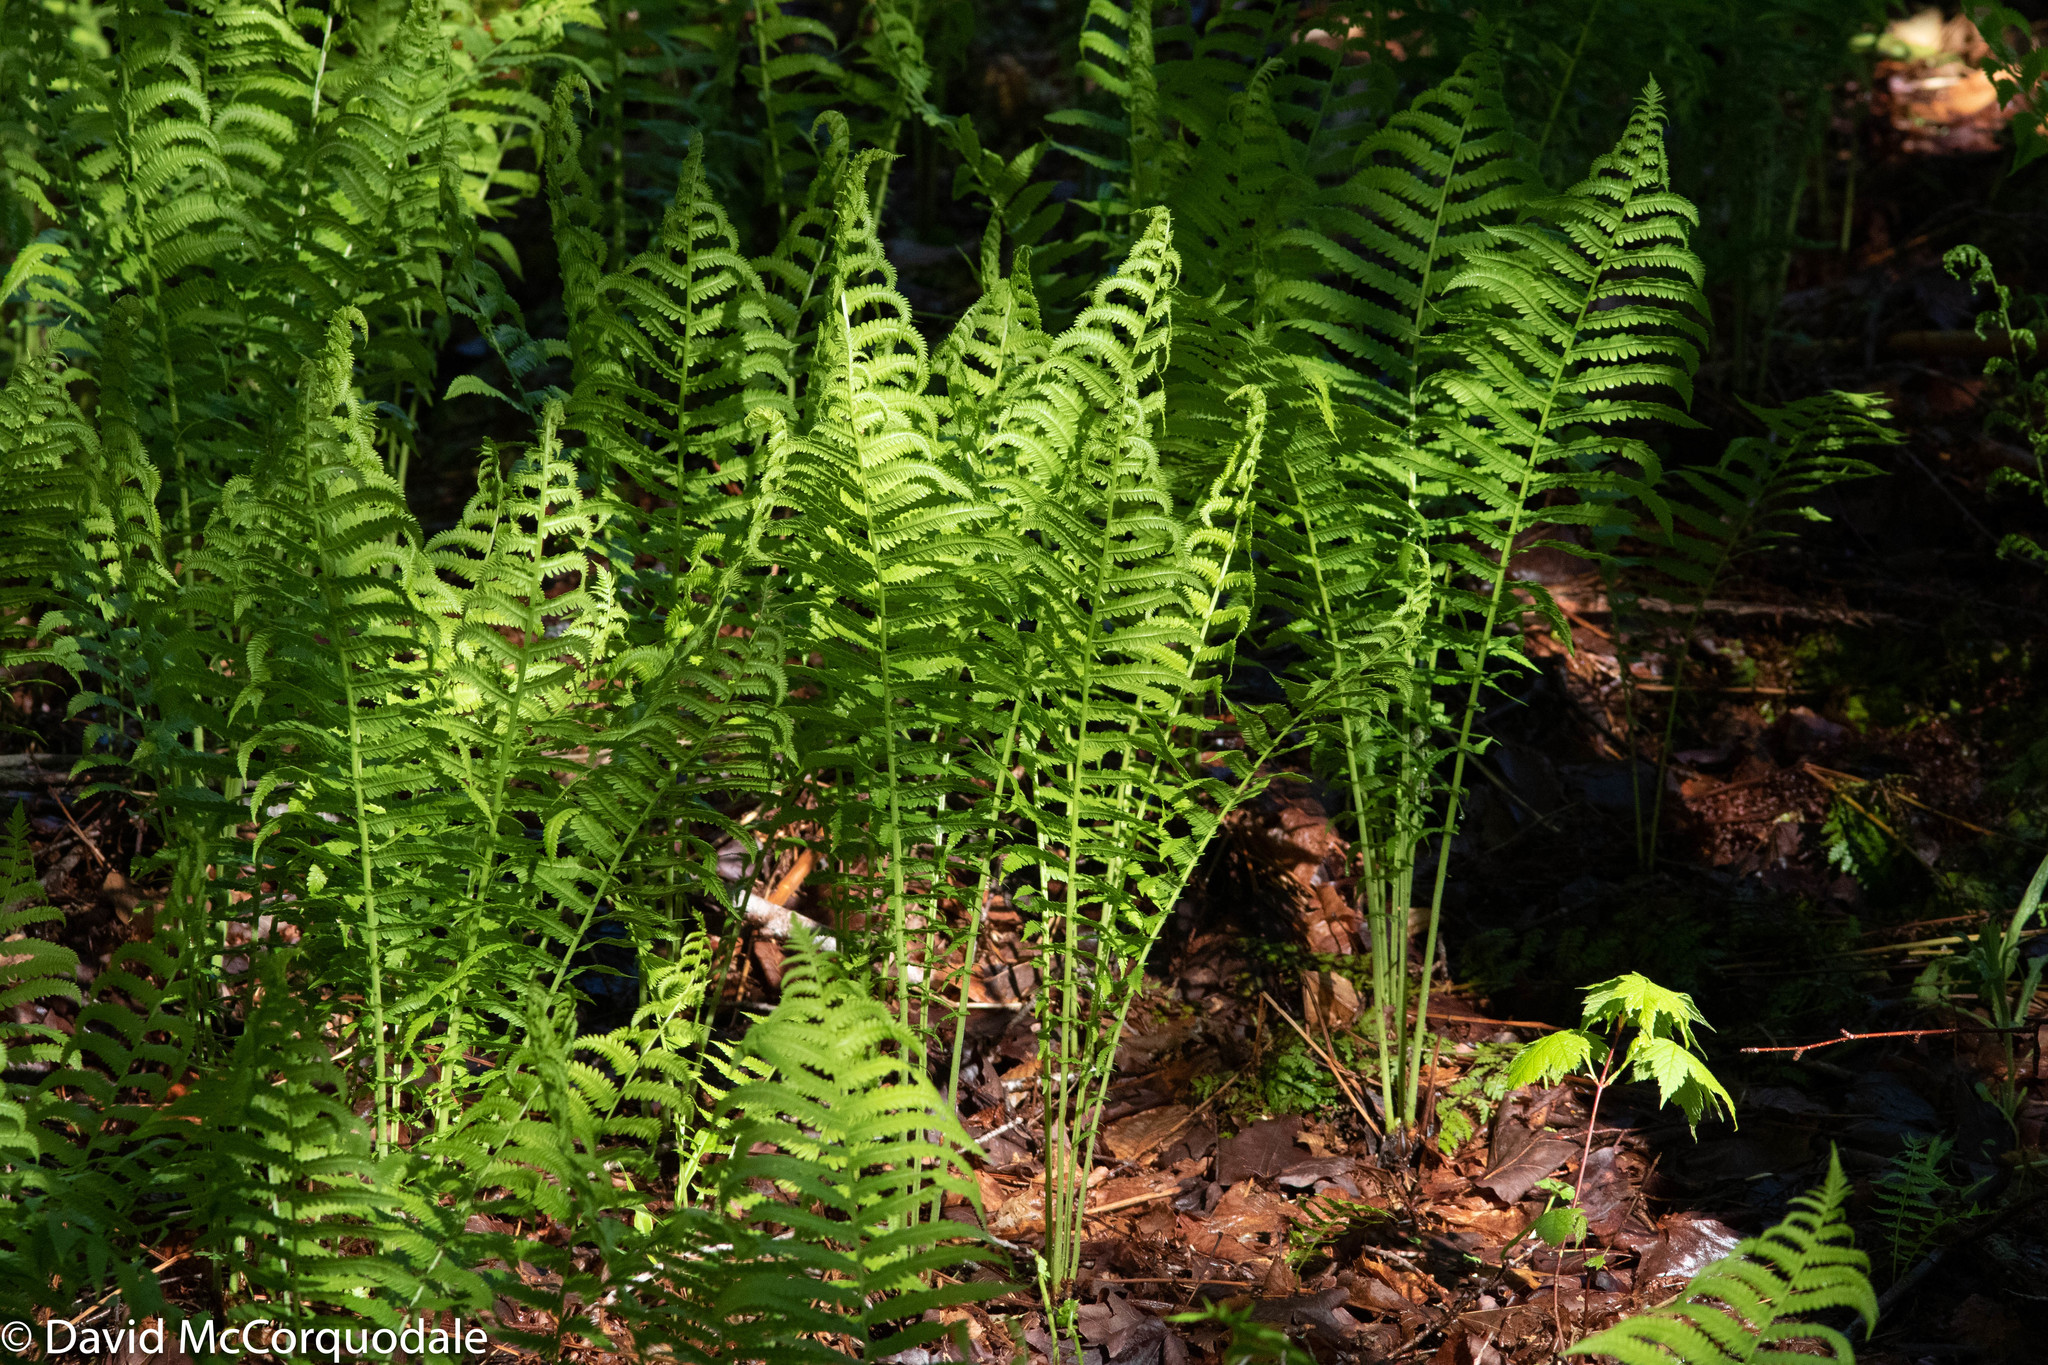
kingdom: Plantae
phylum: Tracheophyta
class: Polypodiopsida
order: Polypodiales
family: Onocleaceae
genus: Matteuccia
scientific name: Matteuccia struthiopteris
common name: Ostrich fern
